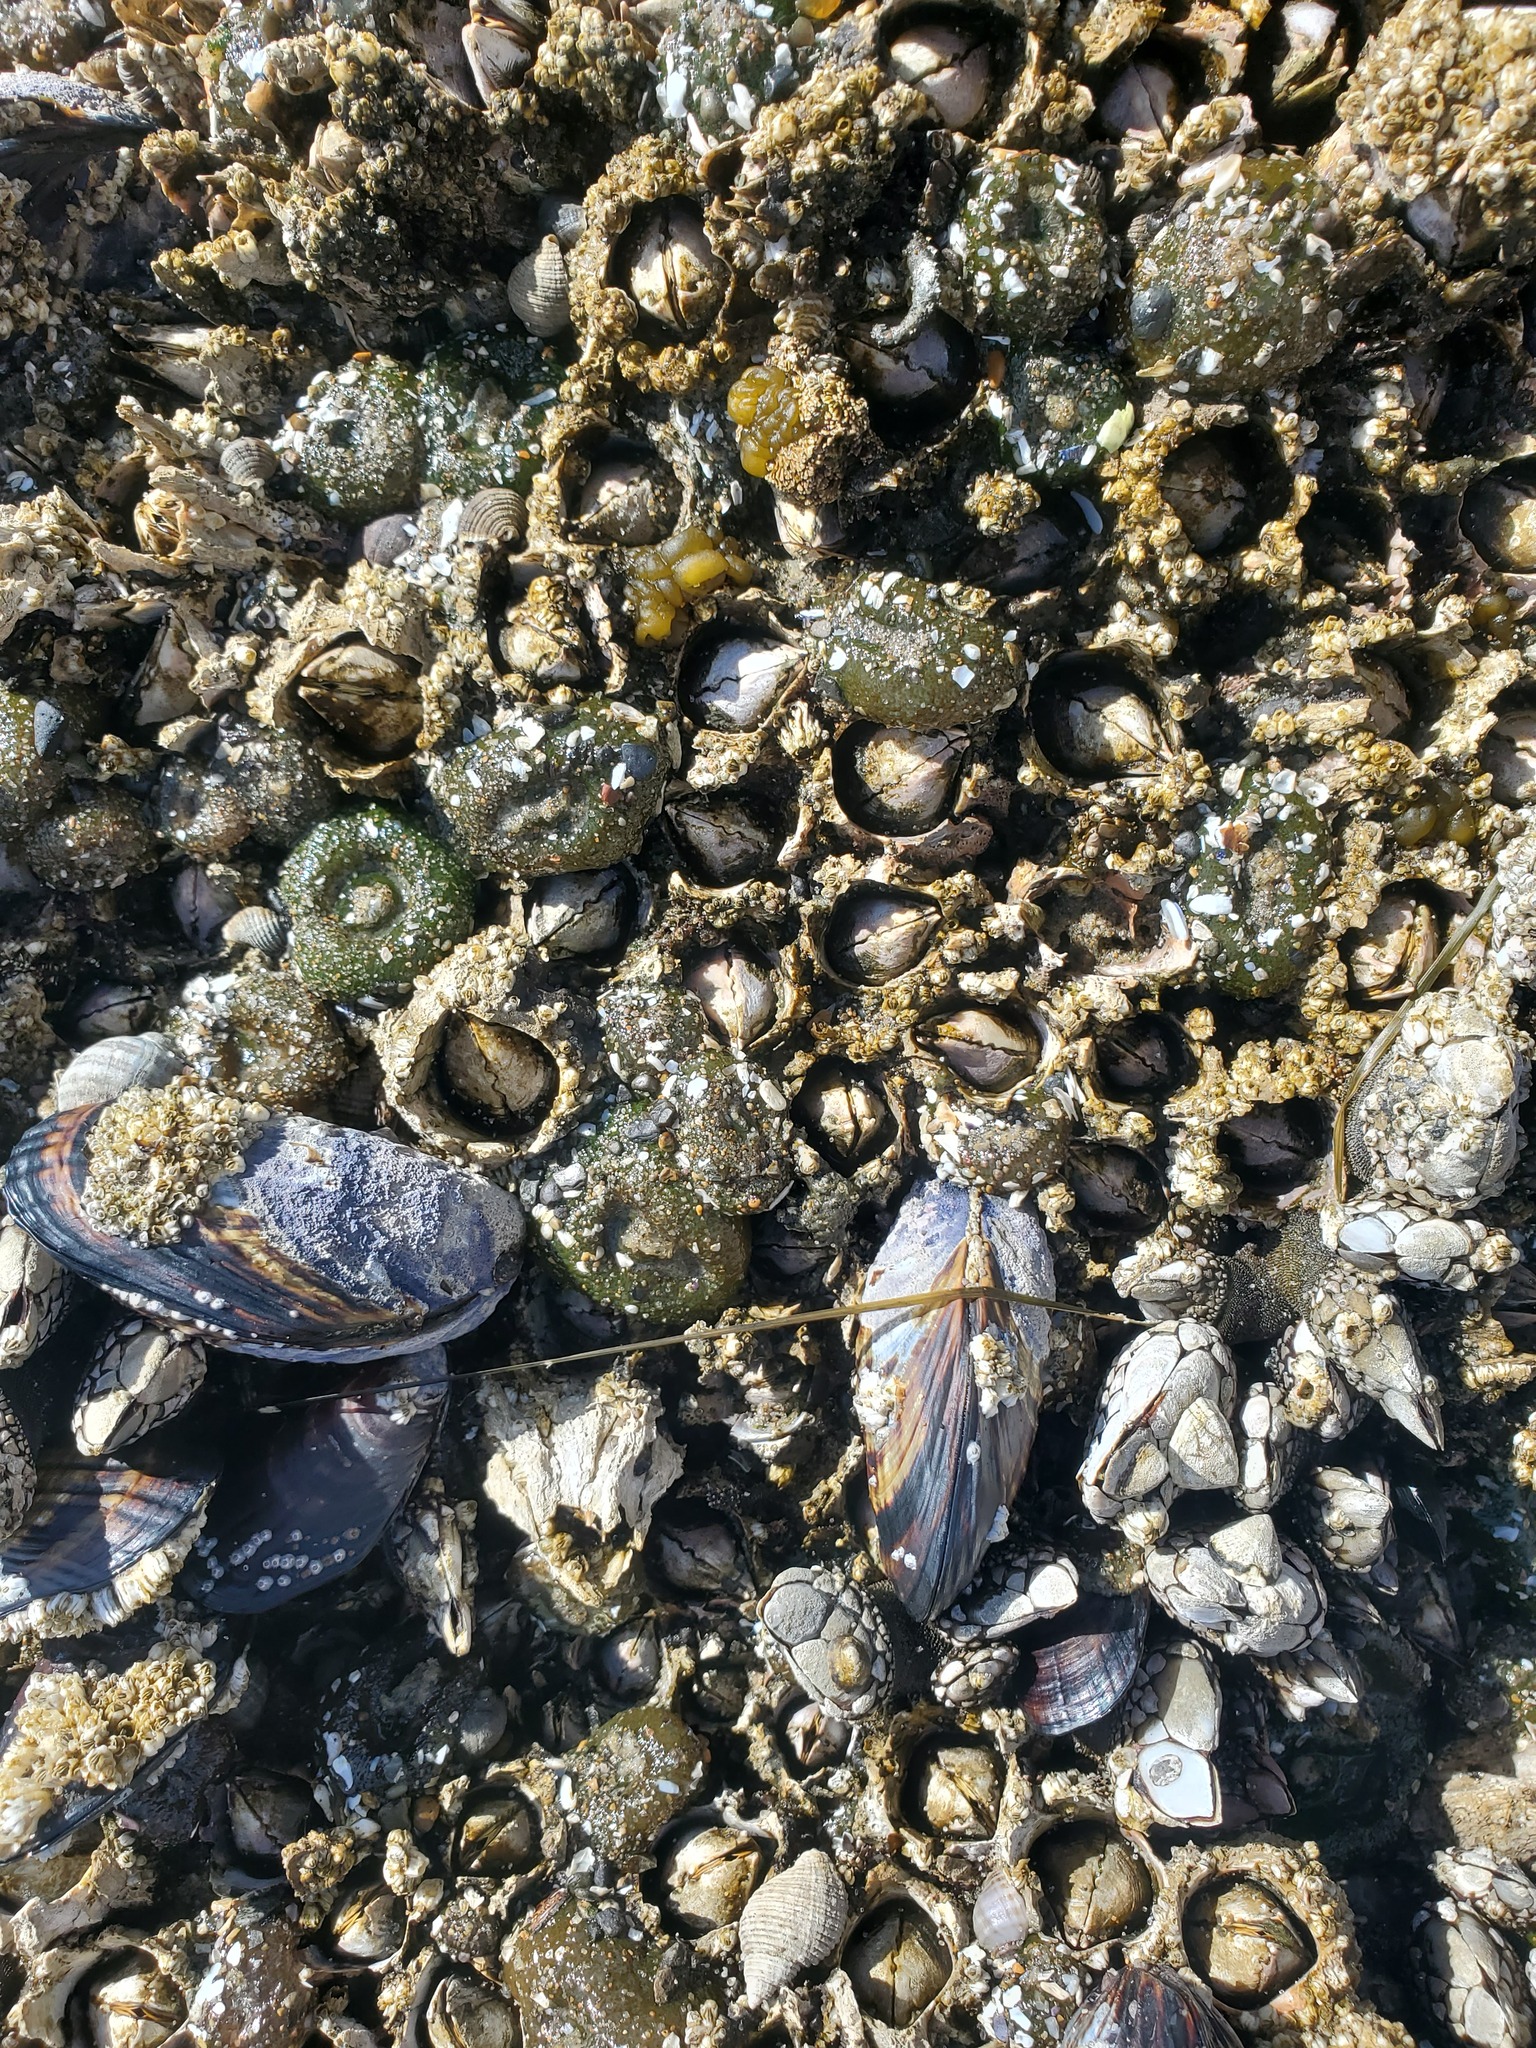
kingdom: Animalia
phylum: Mollusca
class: Bivalvia
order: Mytilida
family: Mytilidae
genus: Mytilus
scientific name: Mytilus californianus
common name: California mussel
